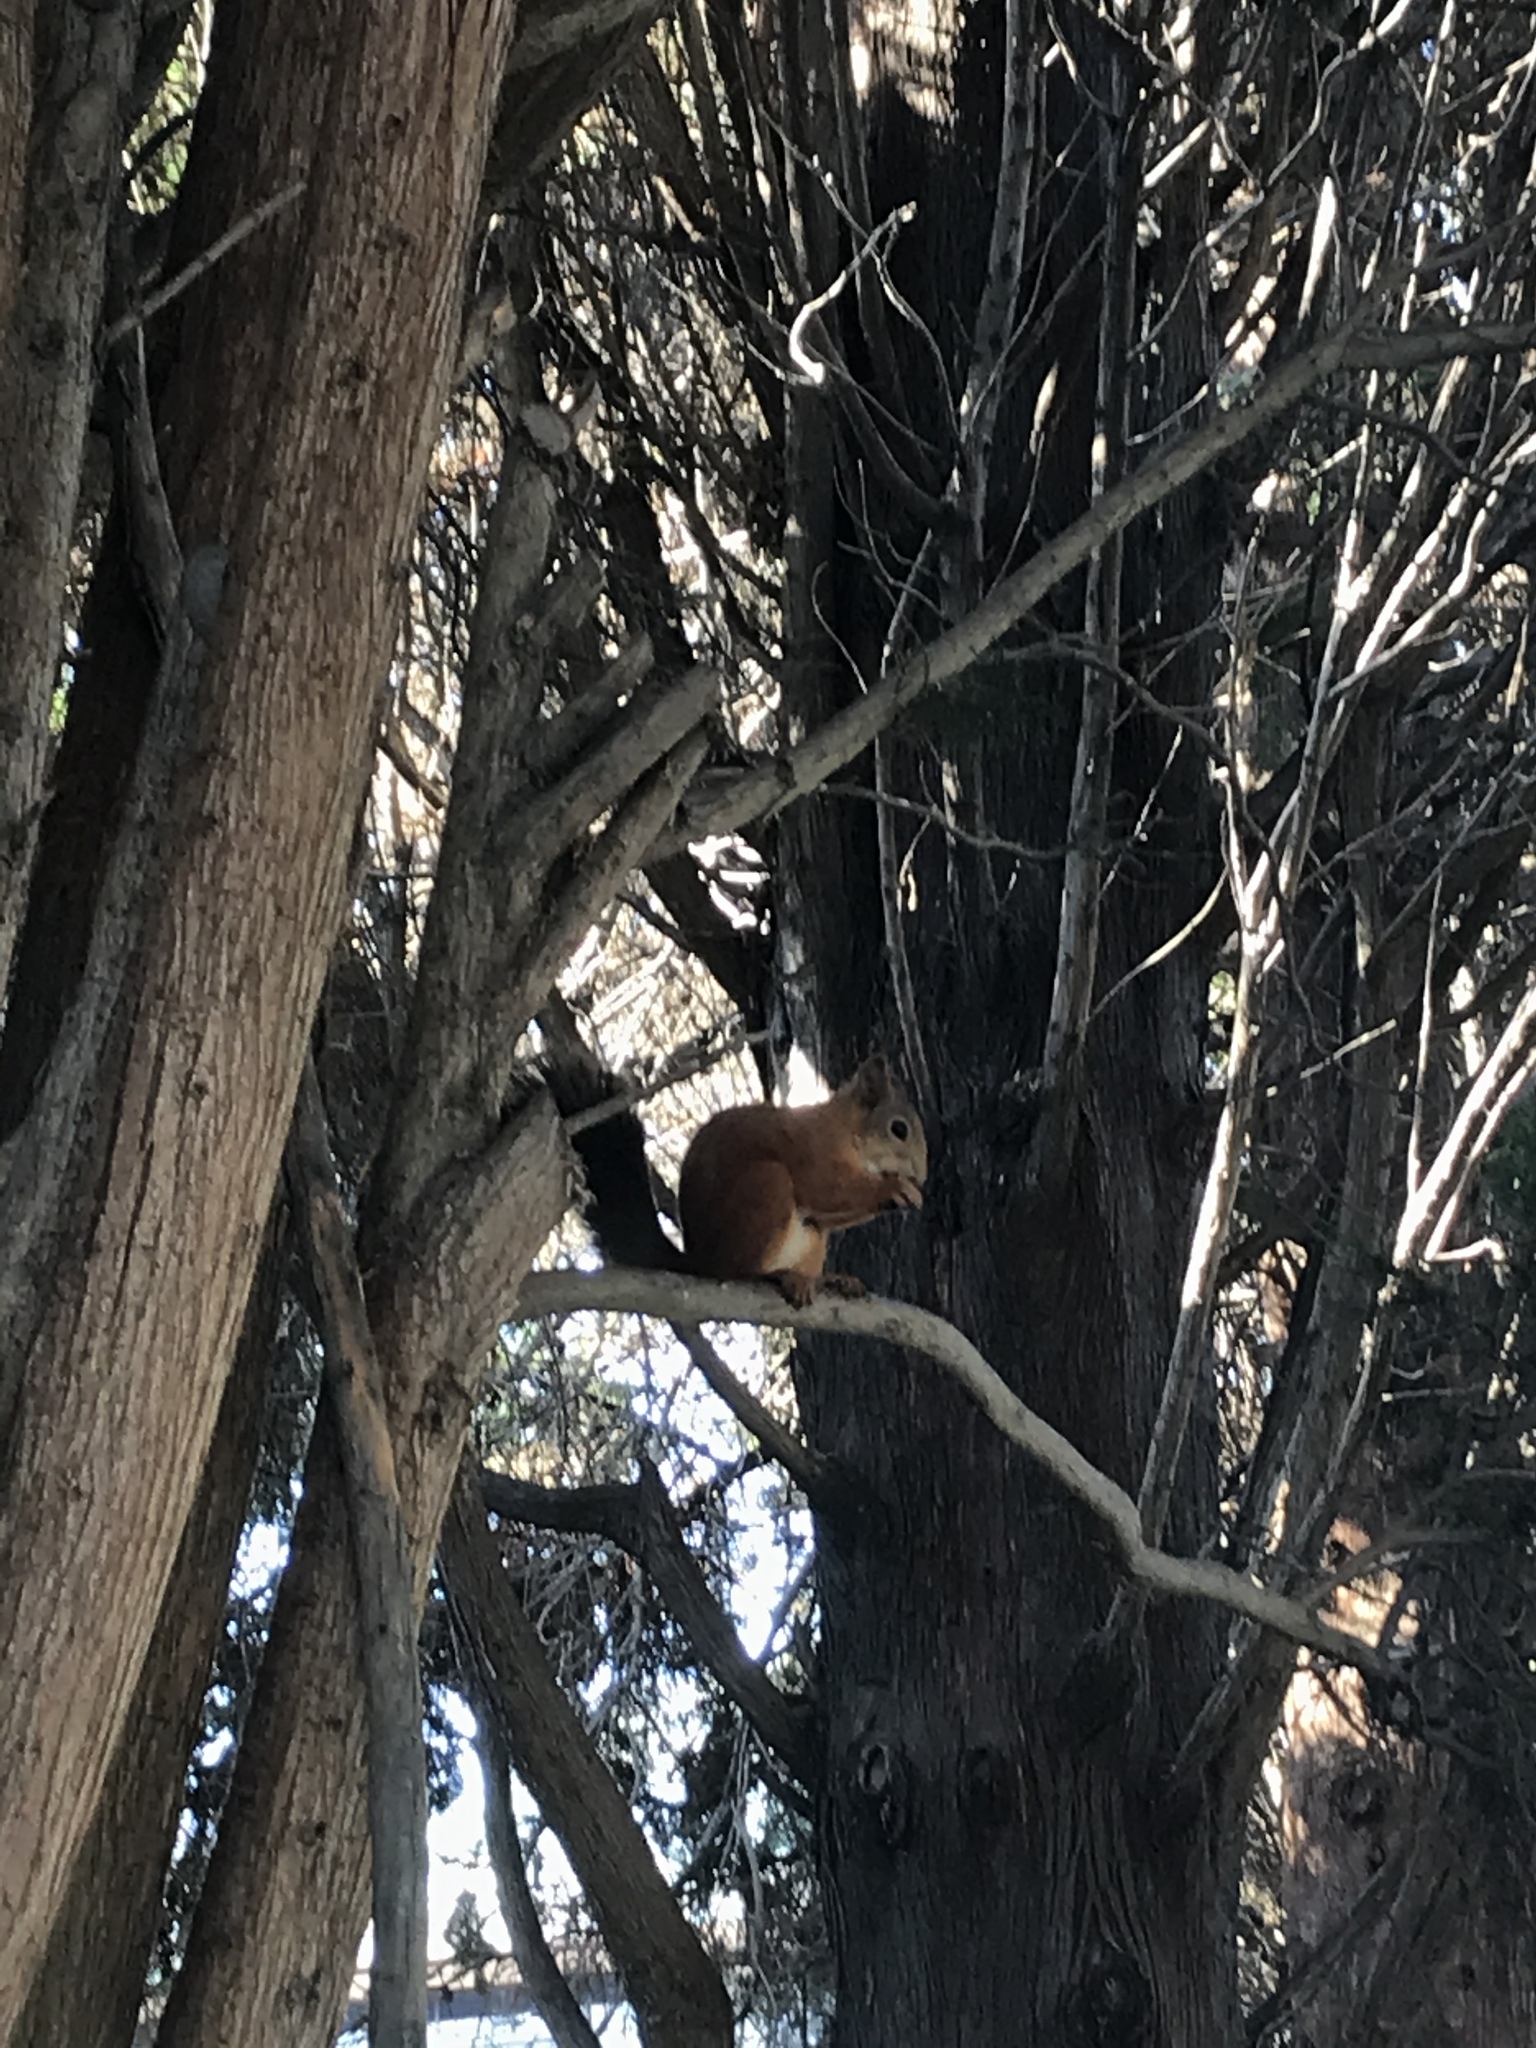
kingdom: Animalia
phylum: Chordata
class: Mammalia
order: Rodentia
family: Sciuridae
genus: Sciurus
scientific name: Sciurus vulgaris
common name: Eurasian red squirrel
